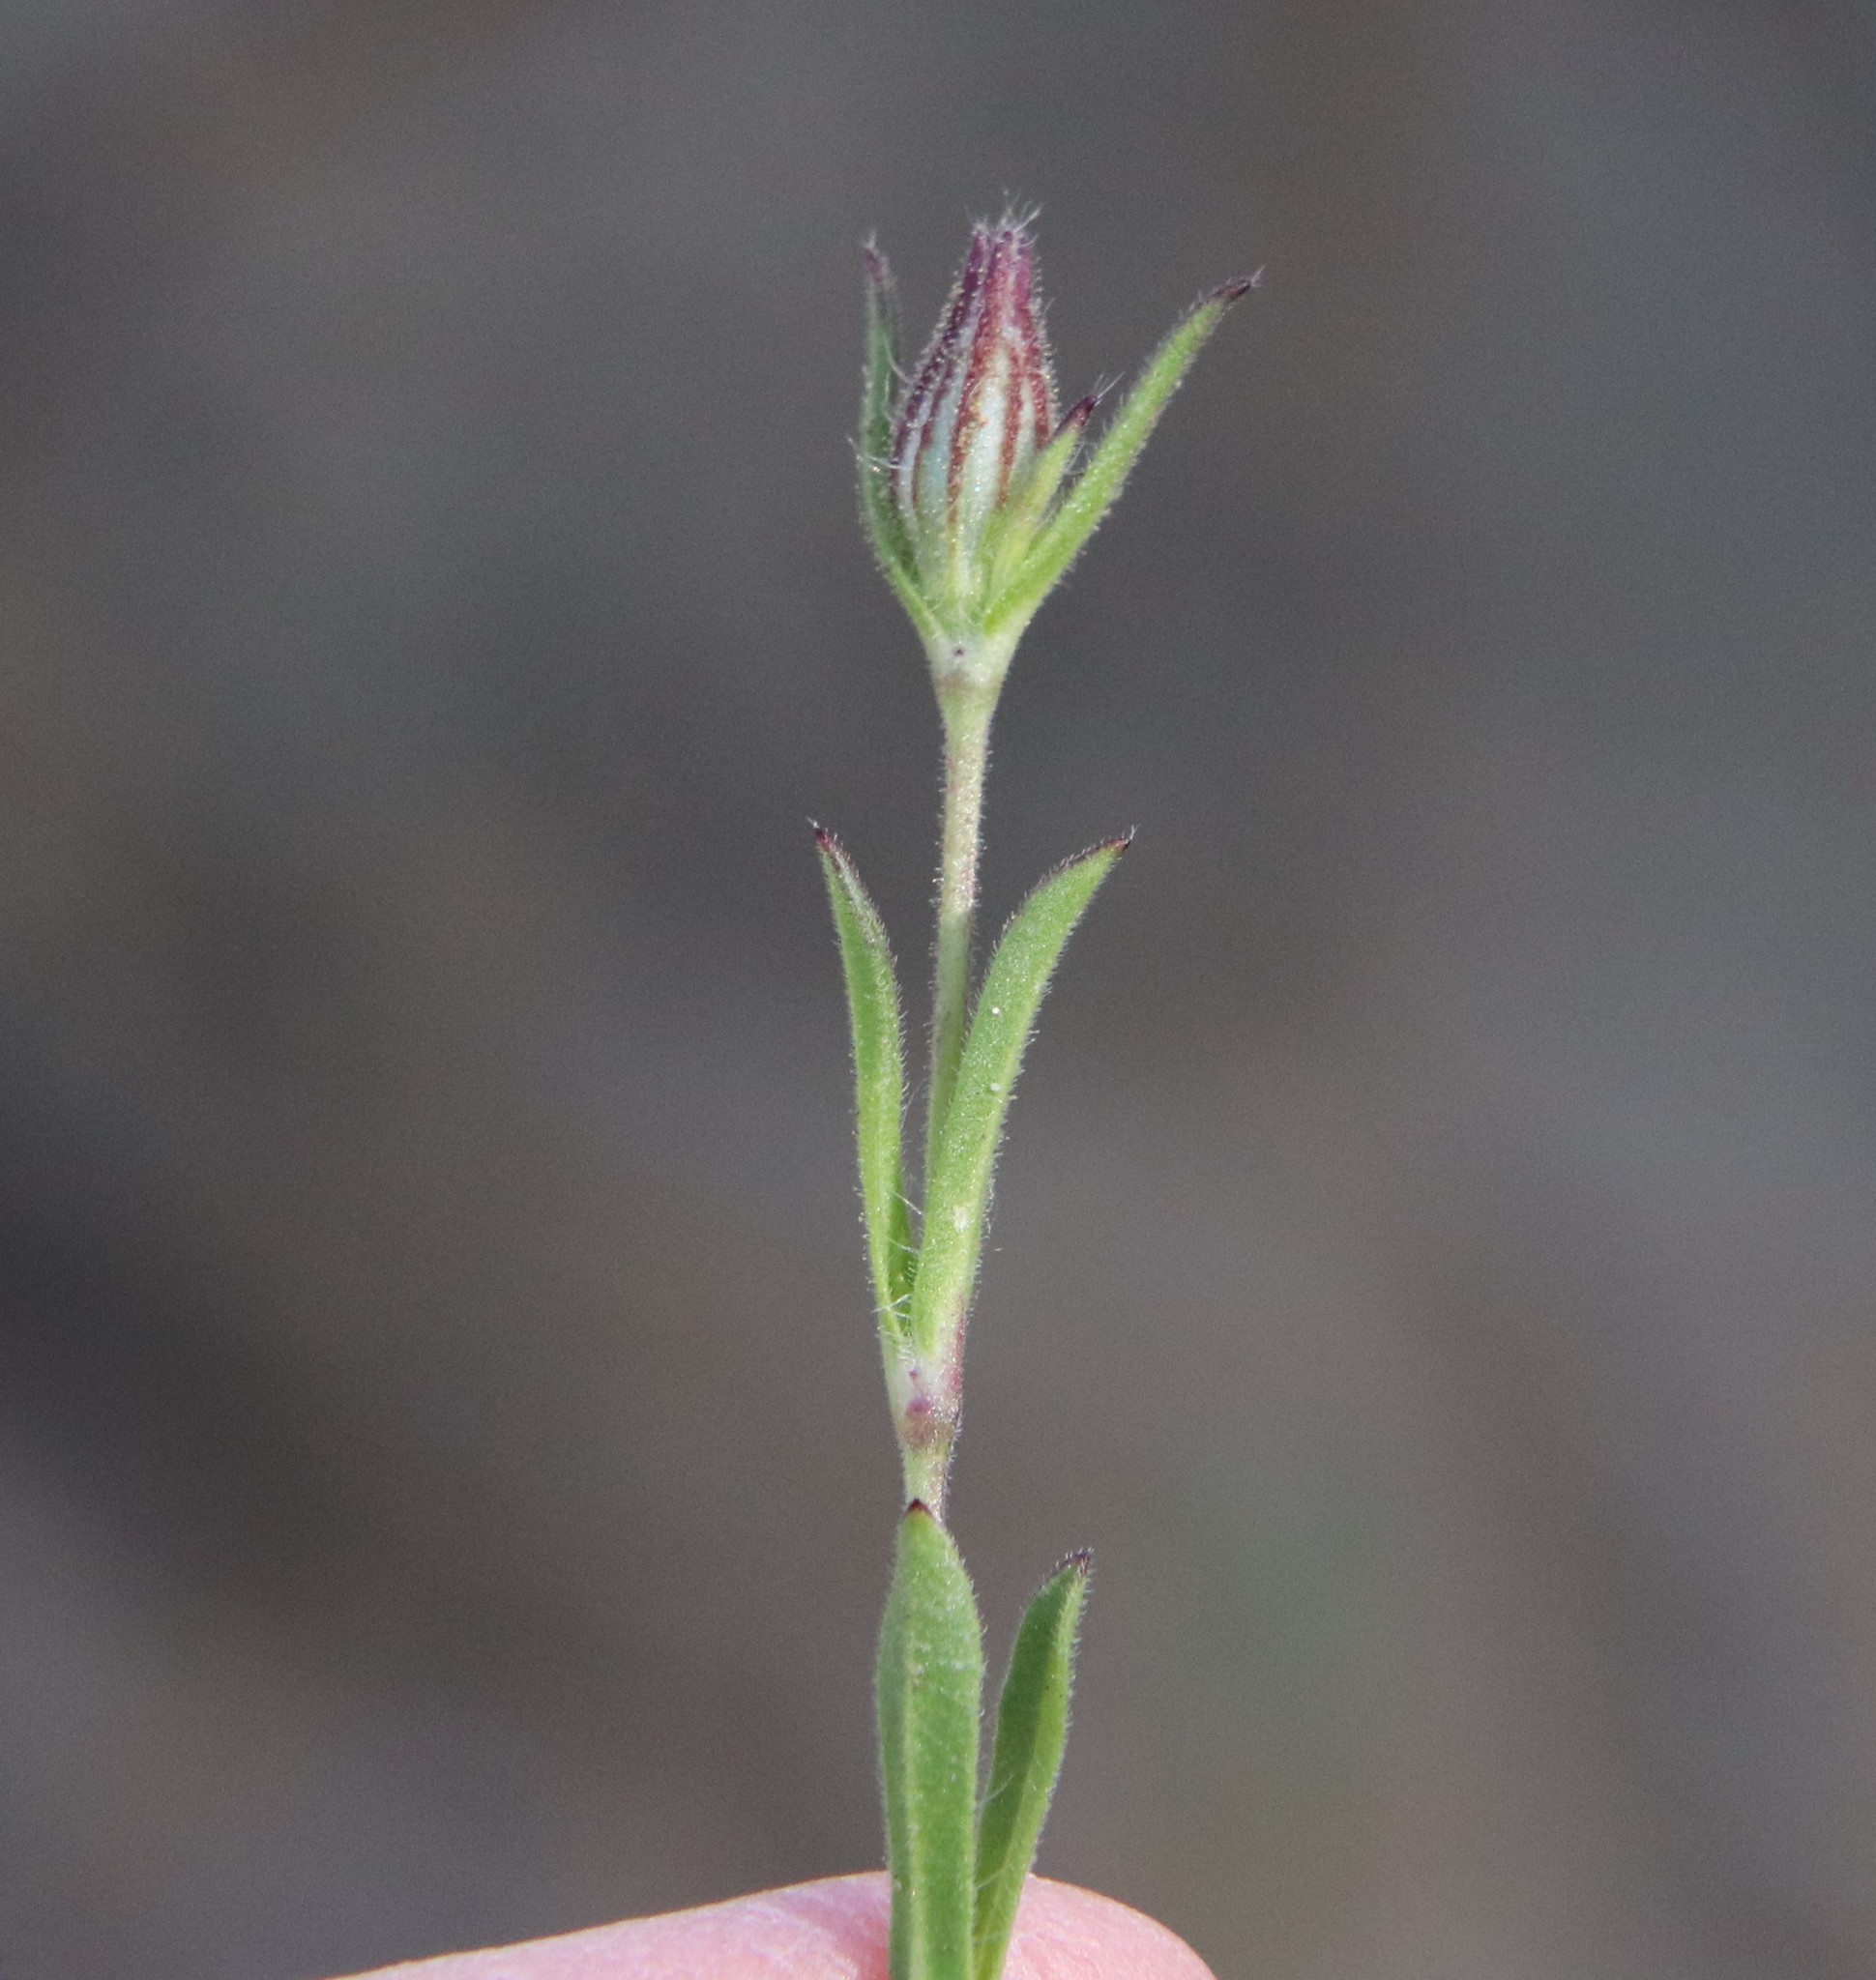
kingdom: Plantae
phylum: Tracheophyta
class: Magnoliopsida
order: Caryophyllales
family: Caryophyllaceae
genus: Silene
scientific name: Silene gallica
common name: Small-flowered catchfly
